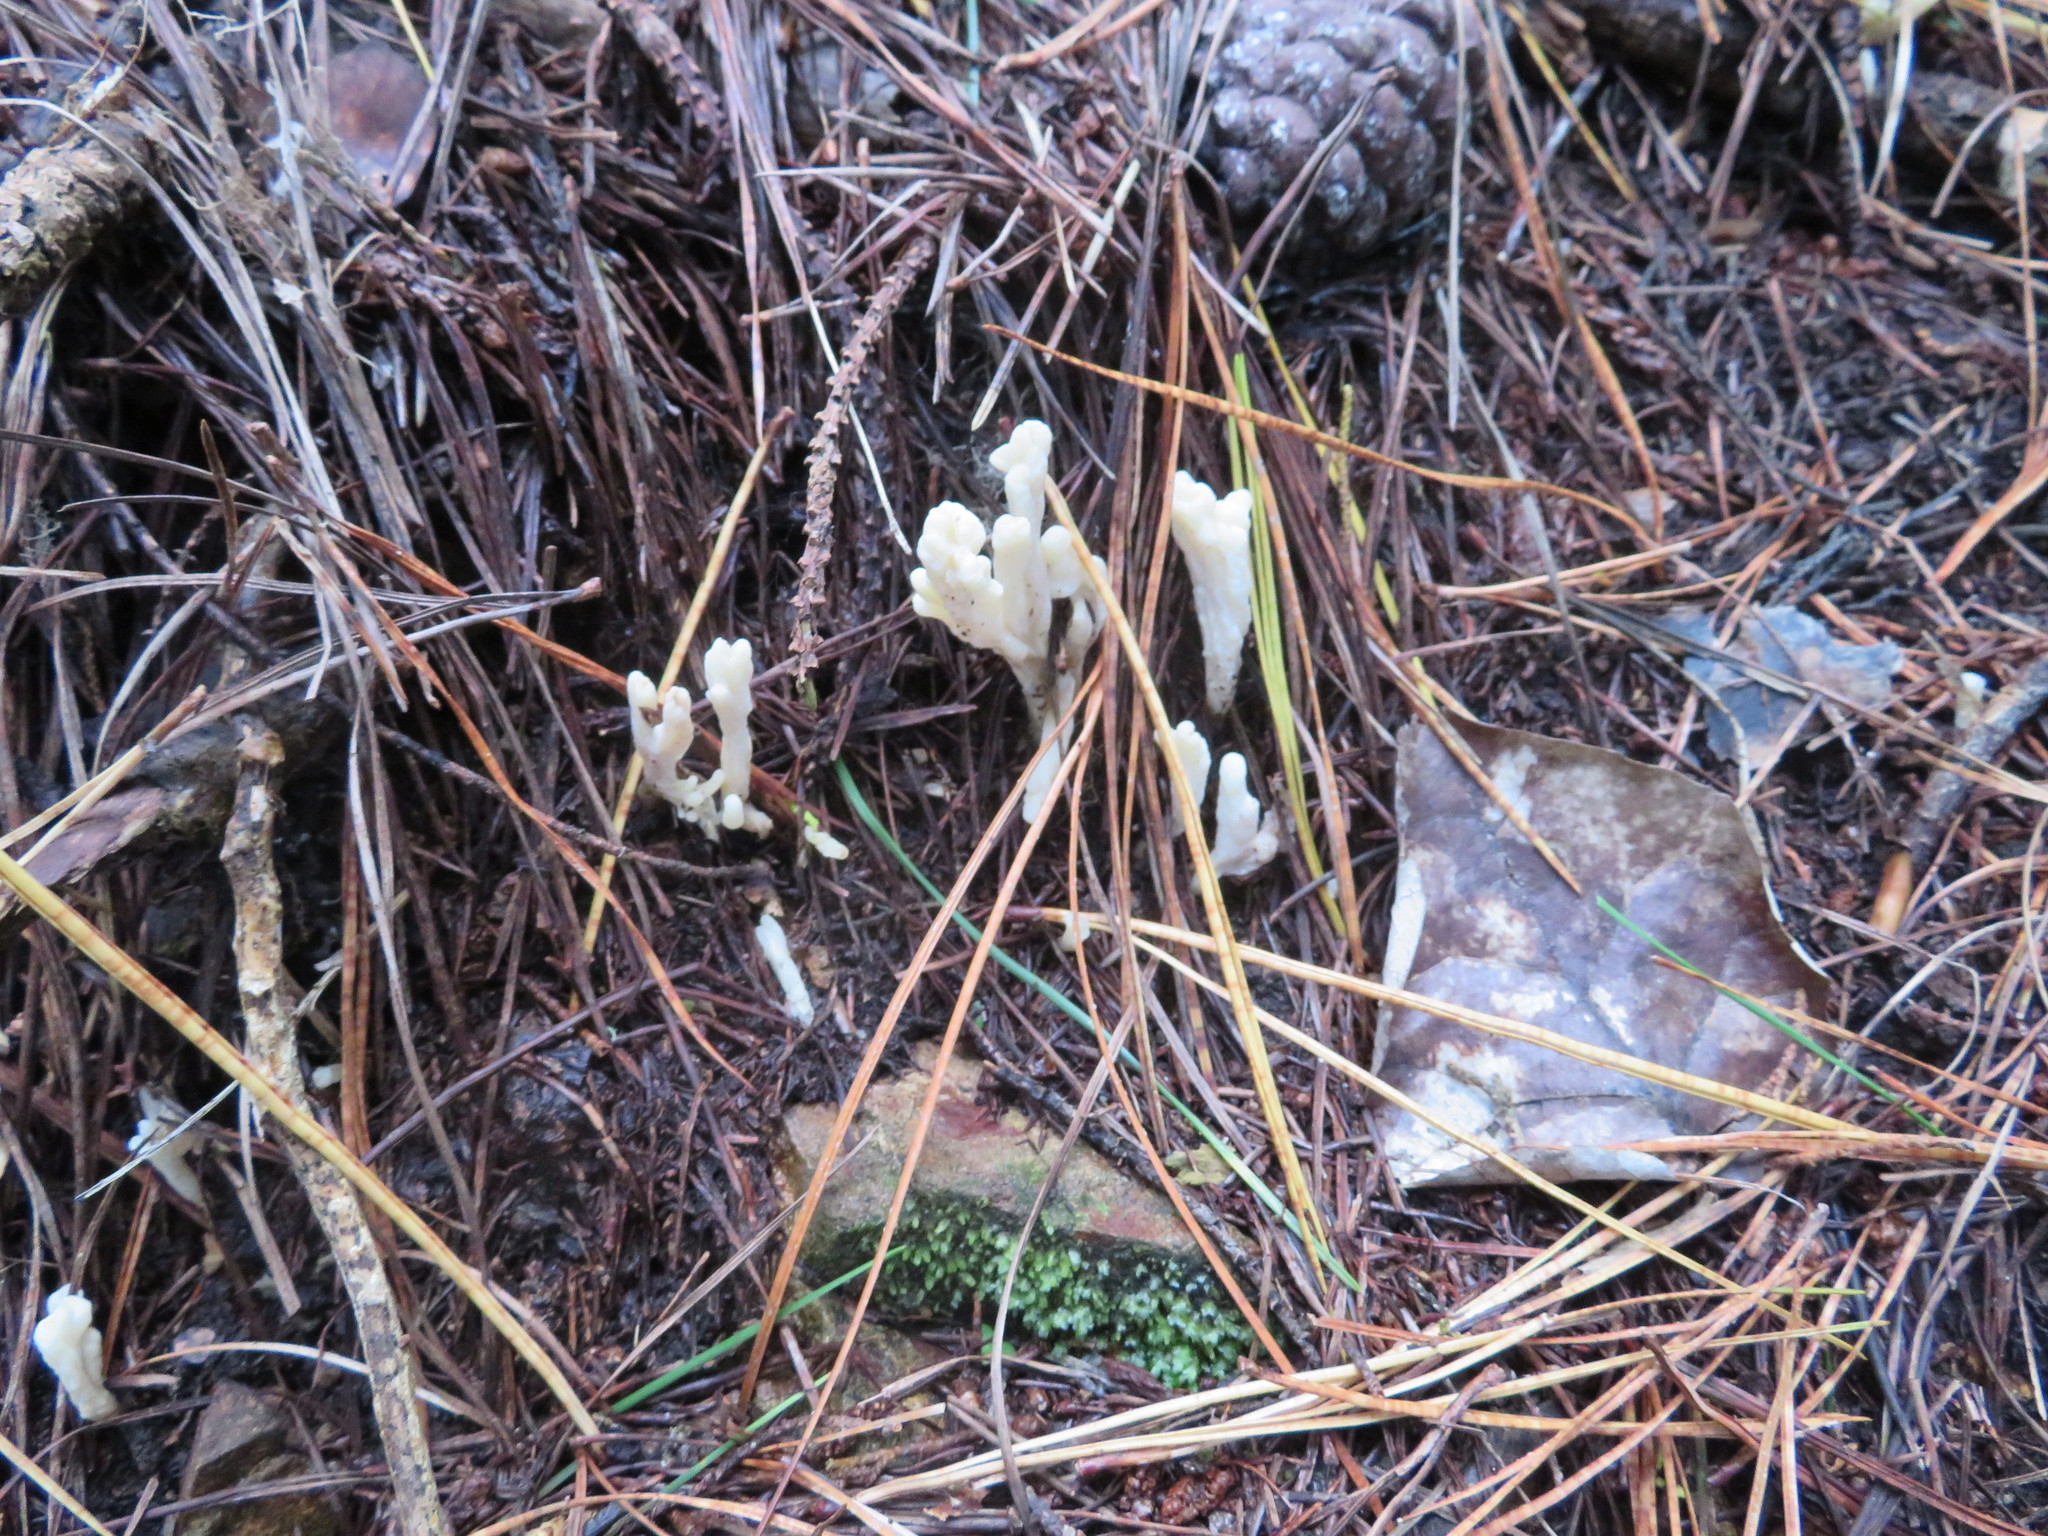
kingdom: Fungi
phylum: Basidiomycota
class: Agaricomycetes
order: Cantharellales
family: Hydnaceae
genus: Clavulina
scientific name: Clavulina rugosa
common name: Wrinkled club
